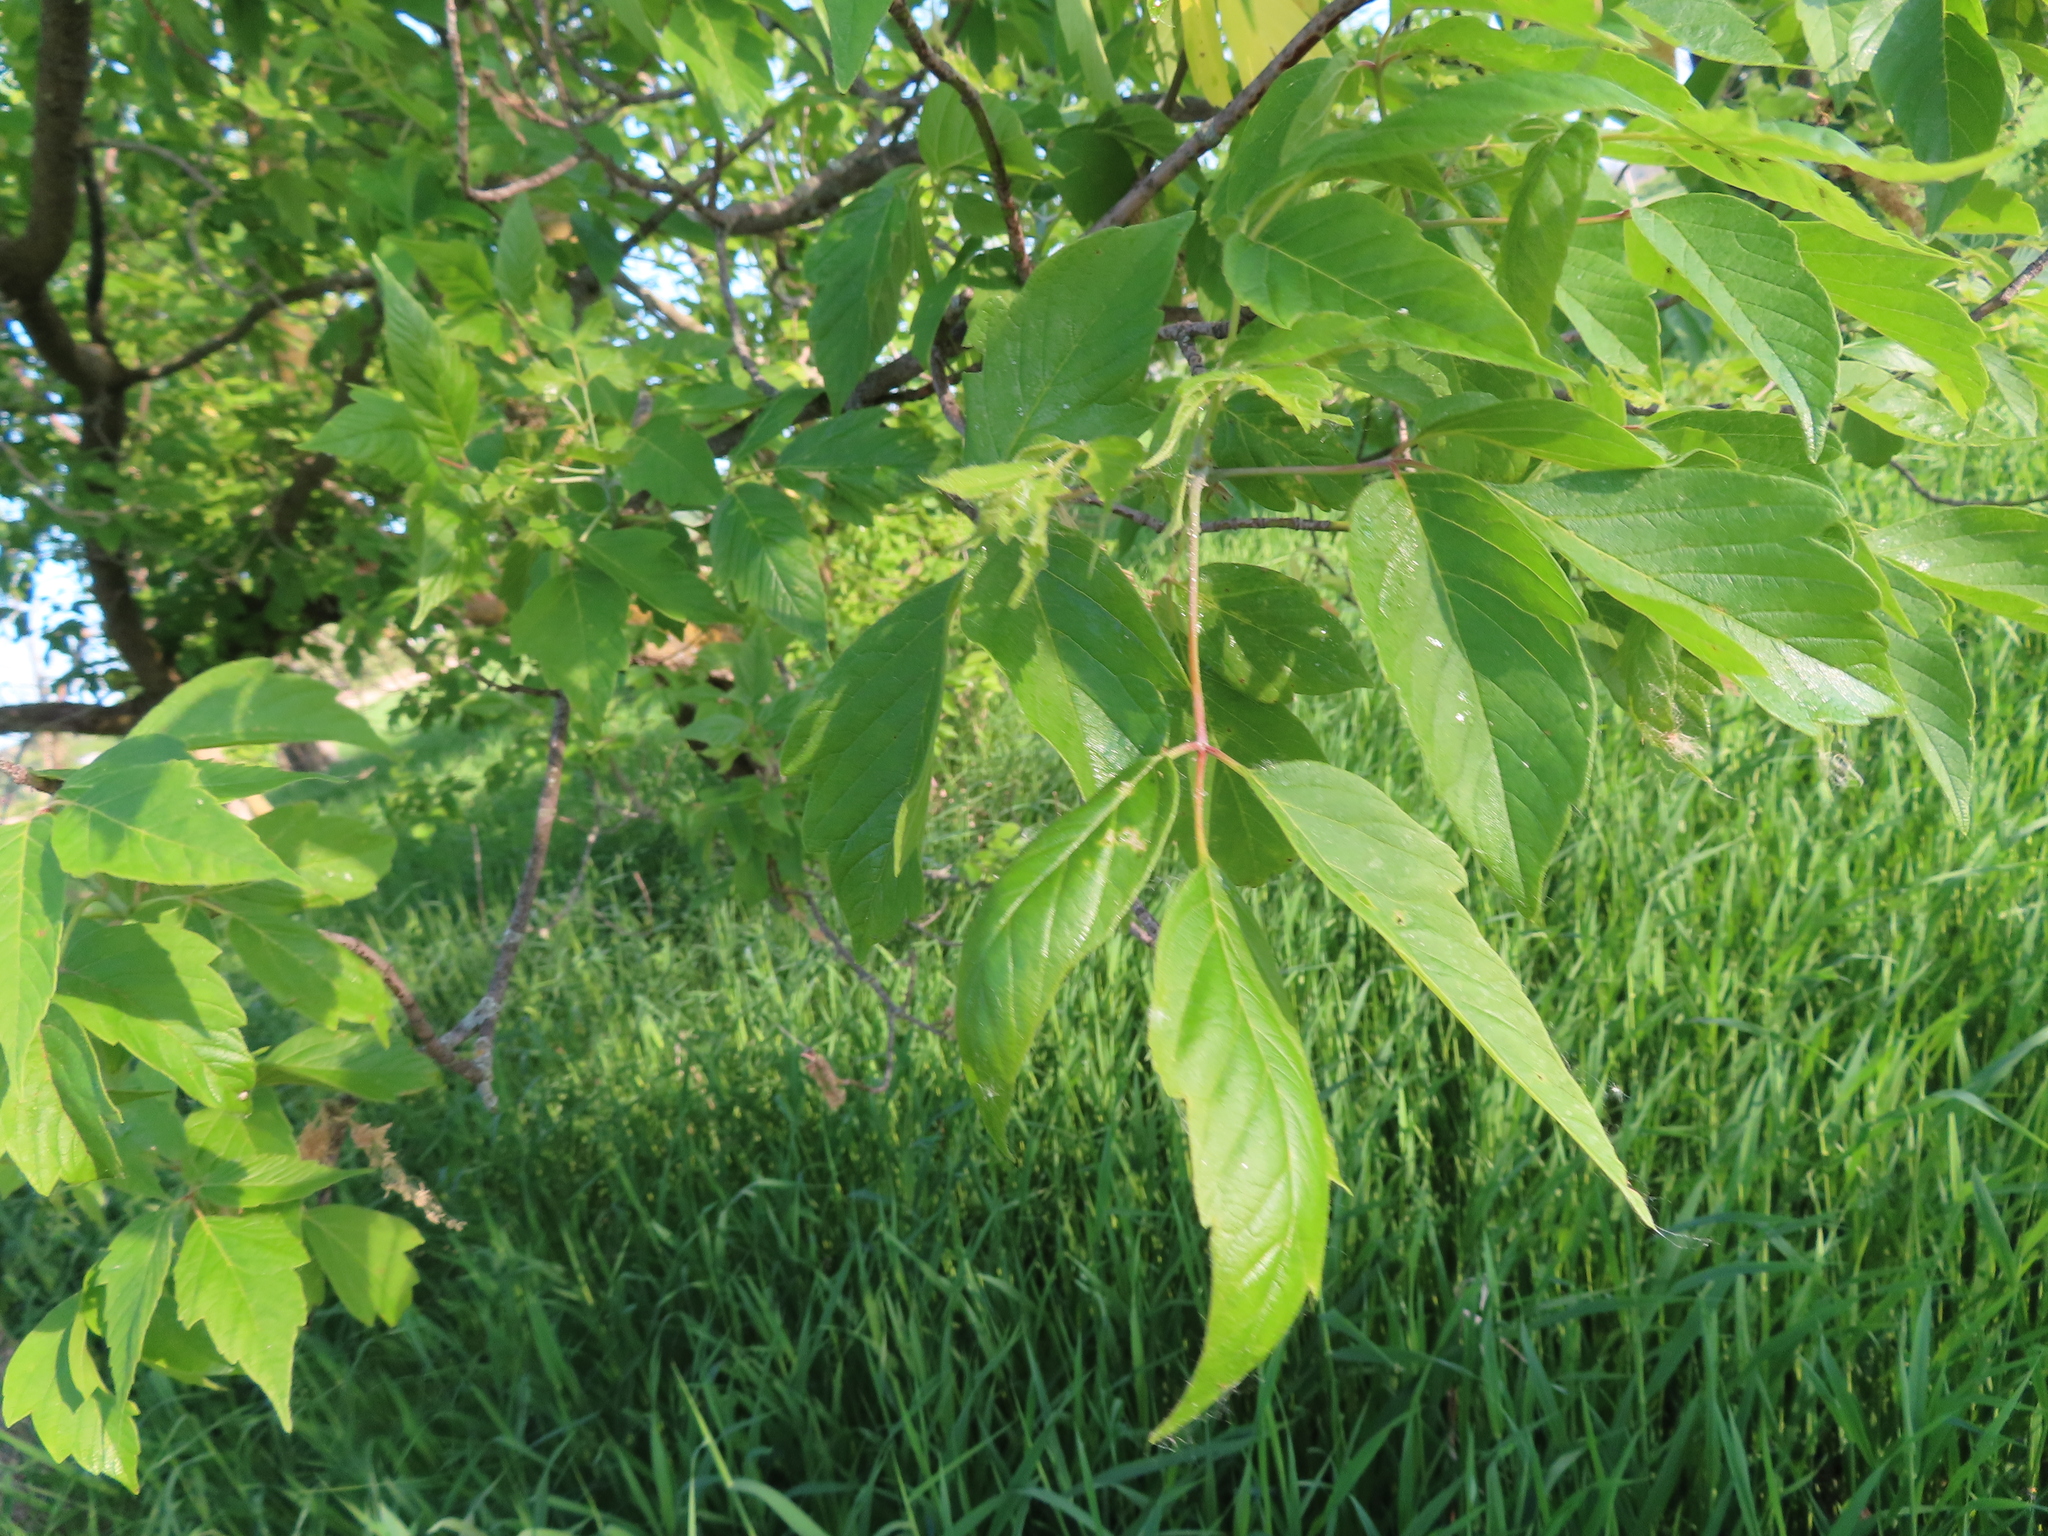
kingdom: Plantae
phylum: Tracheophyta
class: Magnoliopsida
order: Sapindales
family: Sapindaceae
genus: Acer
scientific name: Acer negundo
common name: Ashleaf maple
